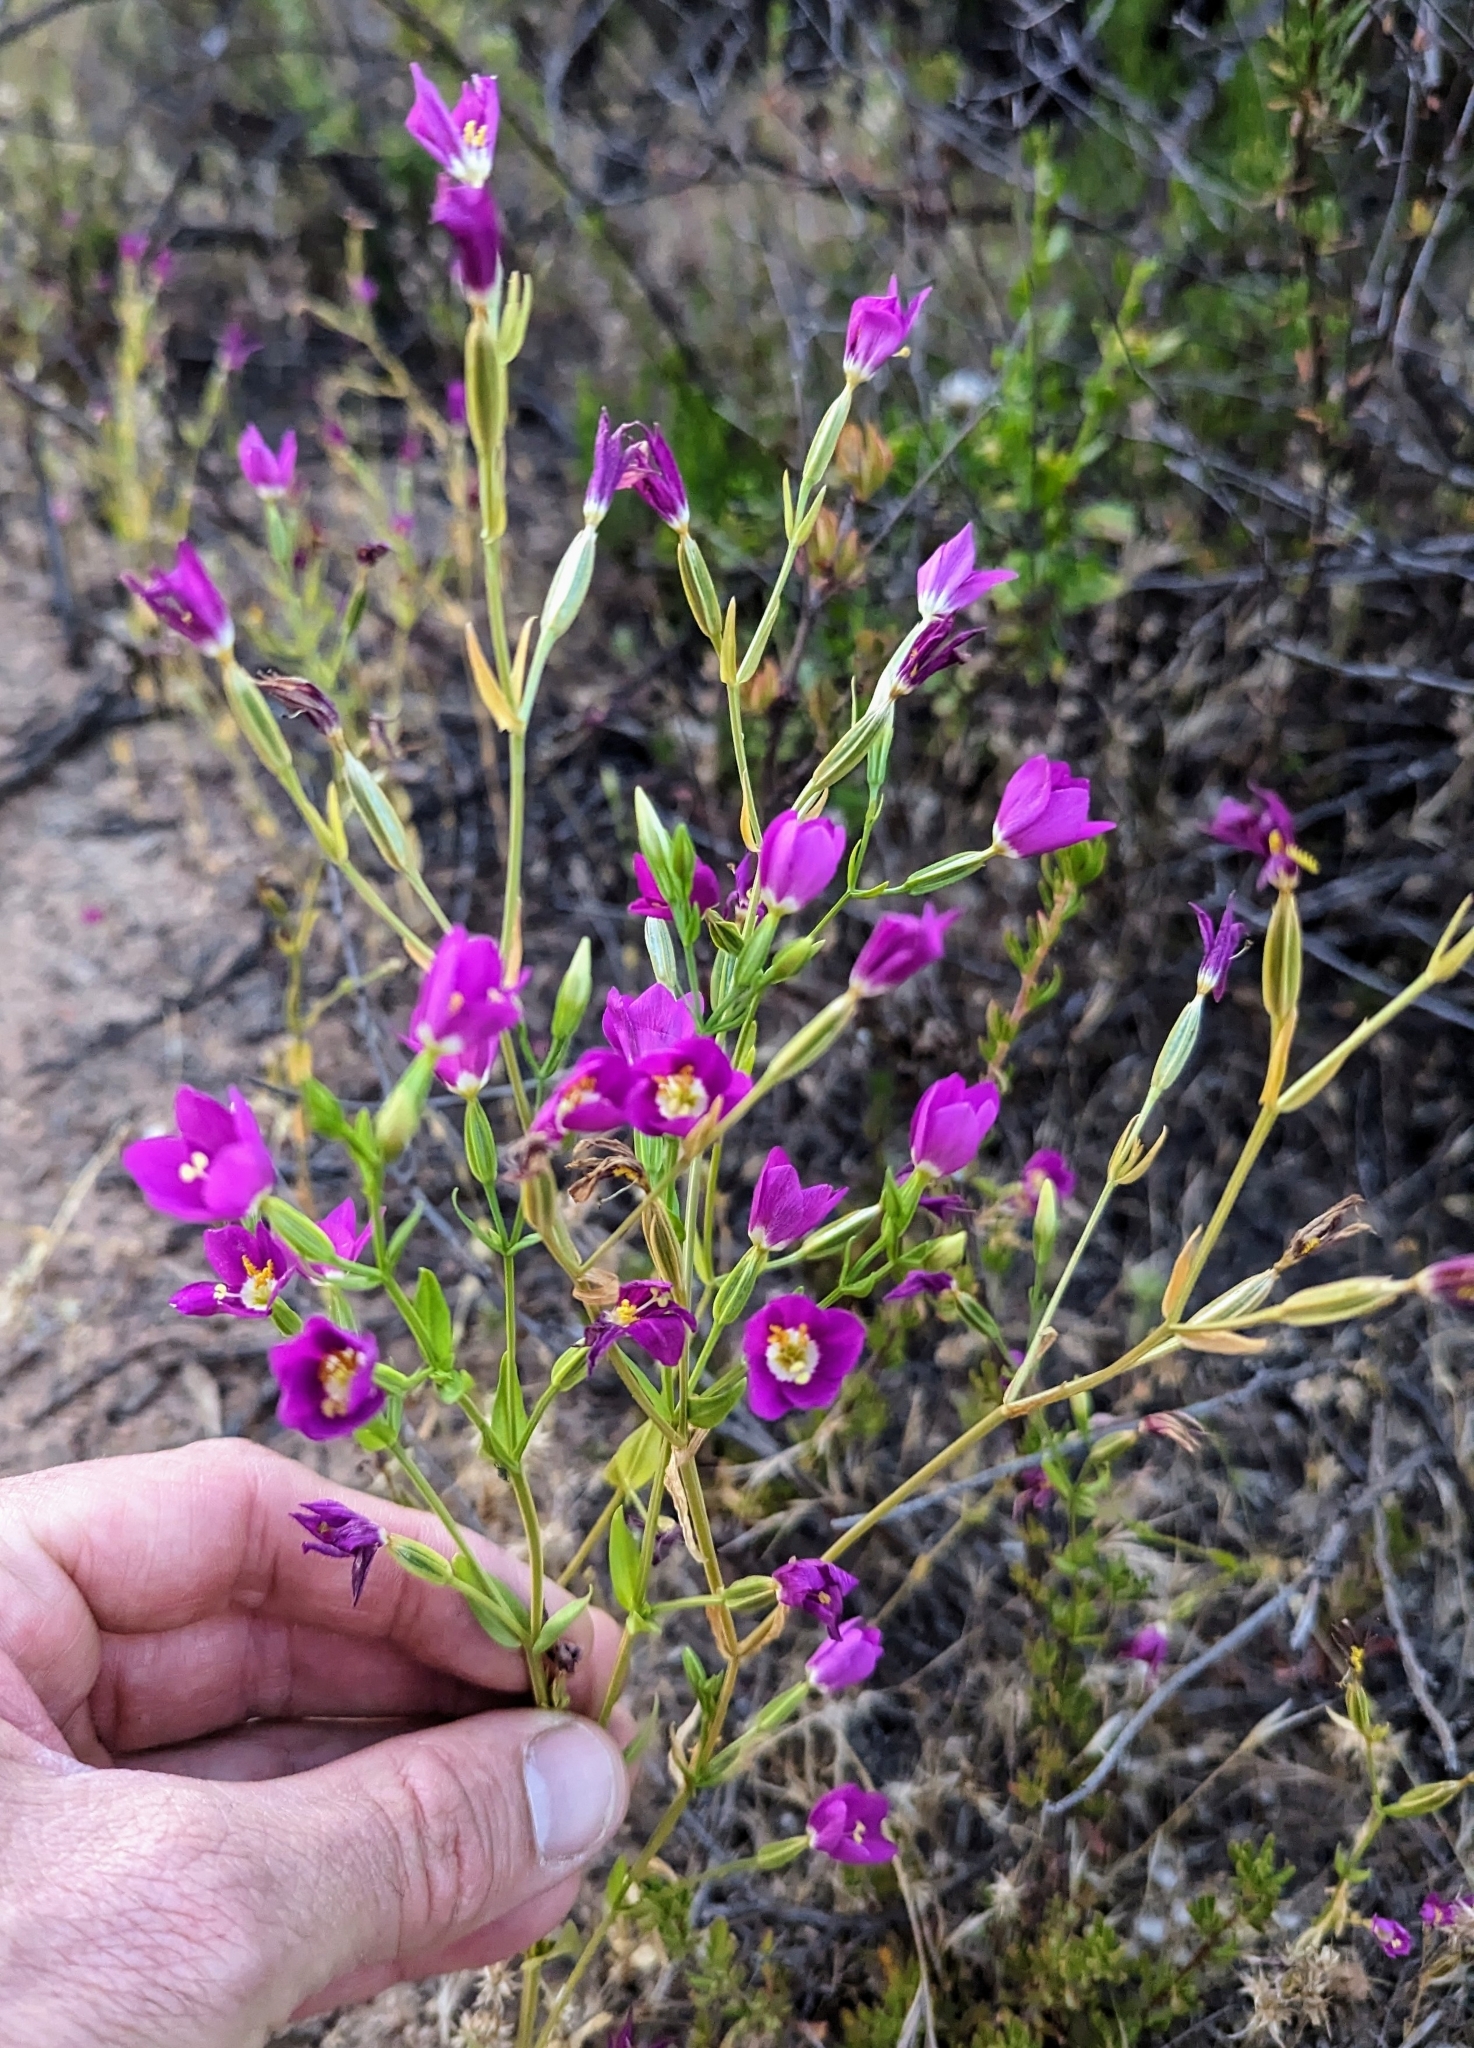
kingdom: Plantae
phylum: Tracheophyta
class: Magnoliopsida
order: Gentianales
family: Gentianaceae
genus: Zeltnera
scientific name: Zeltnera venusta
